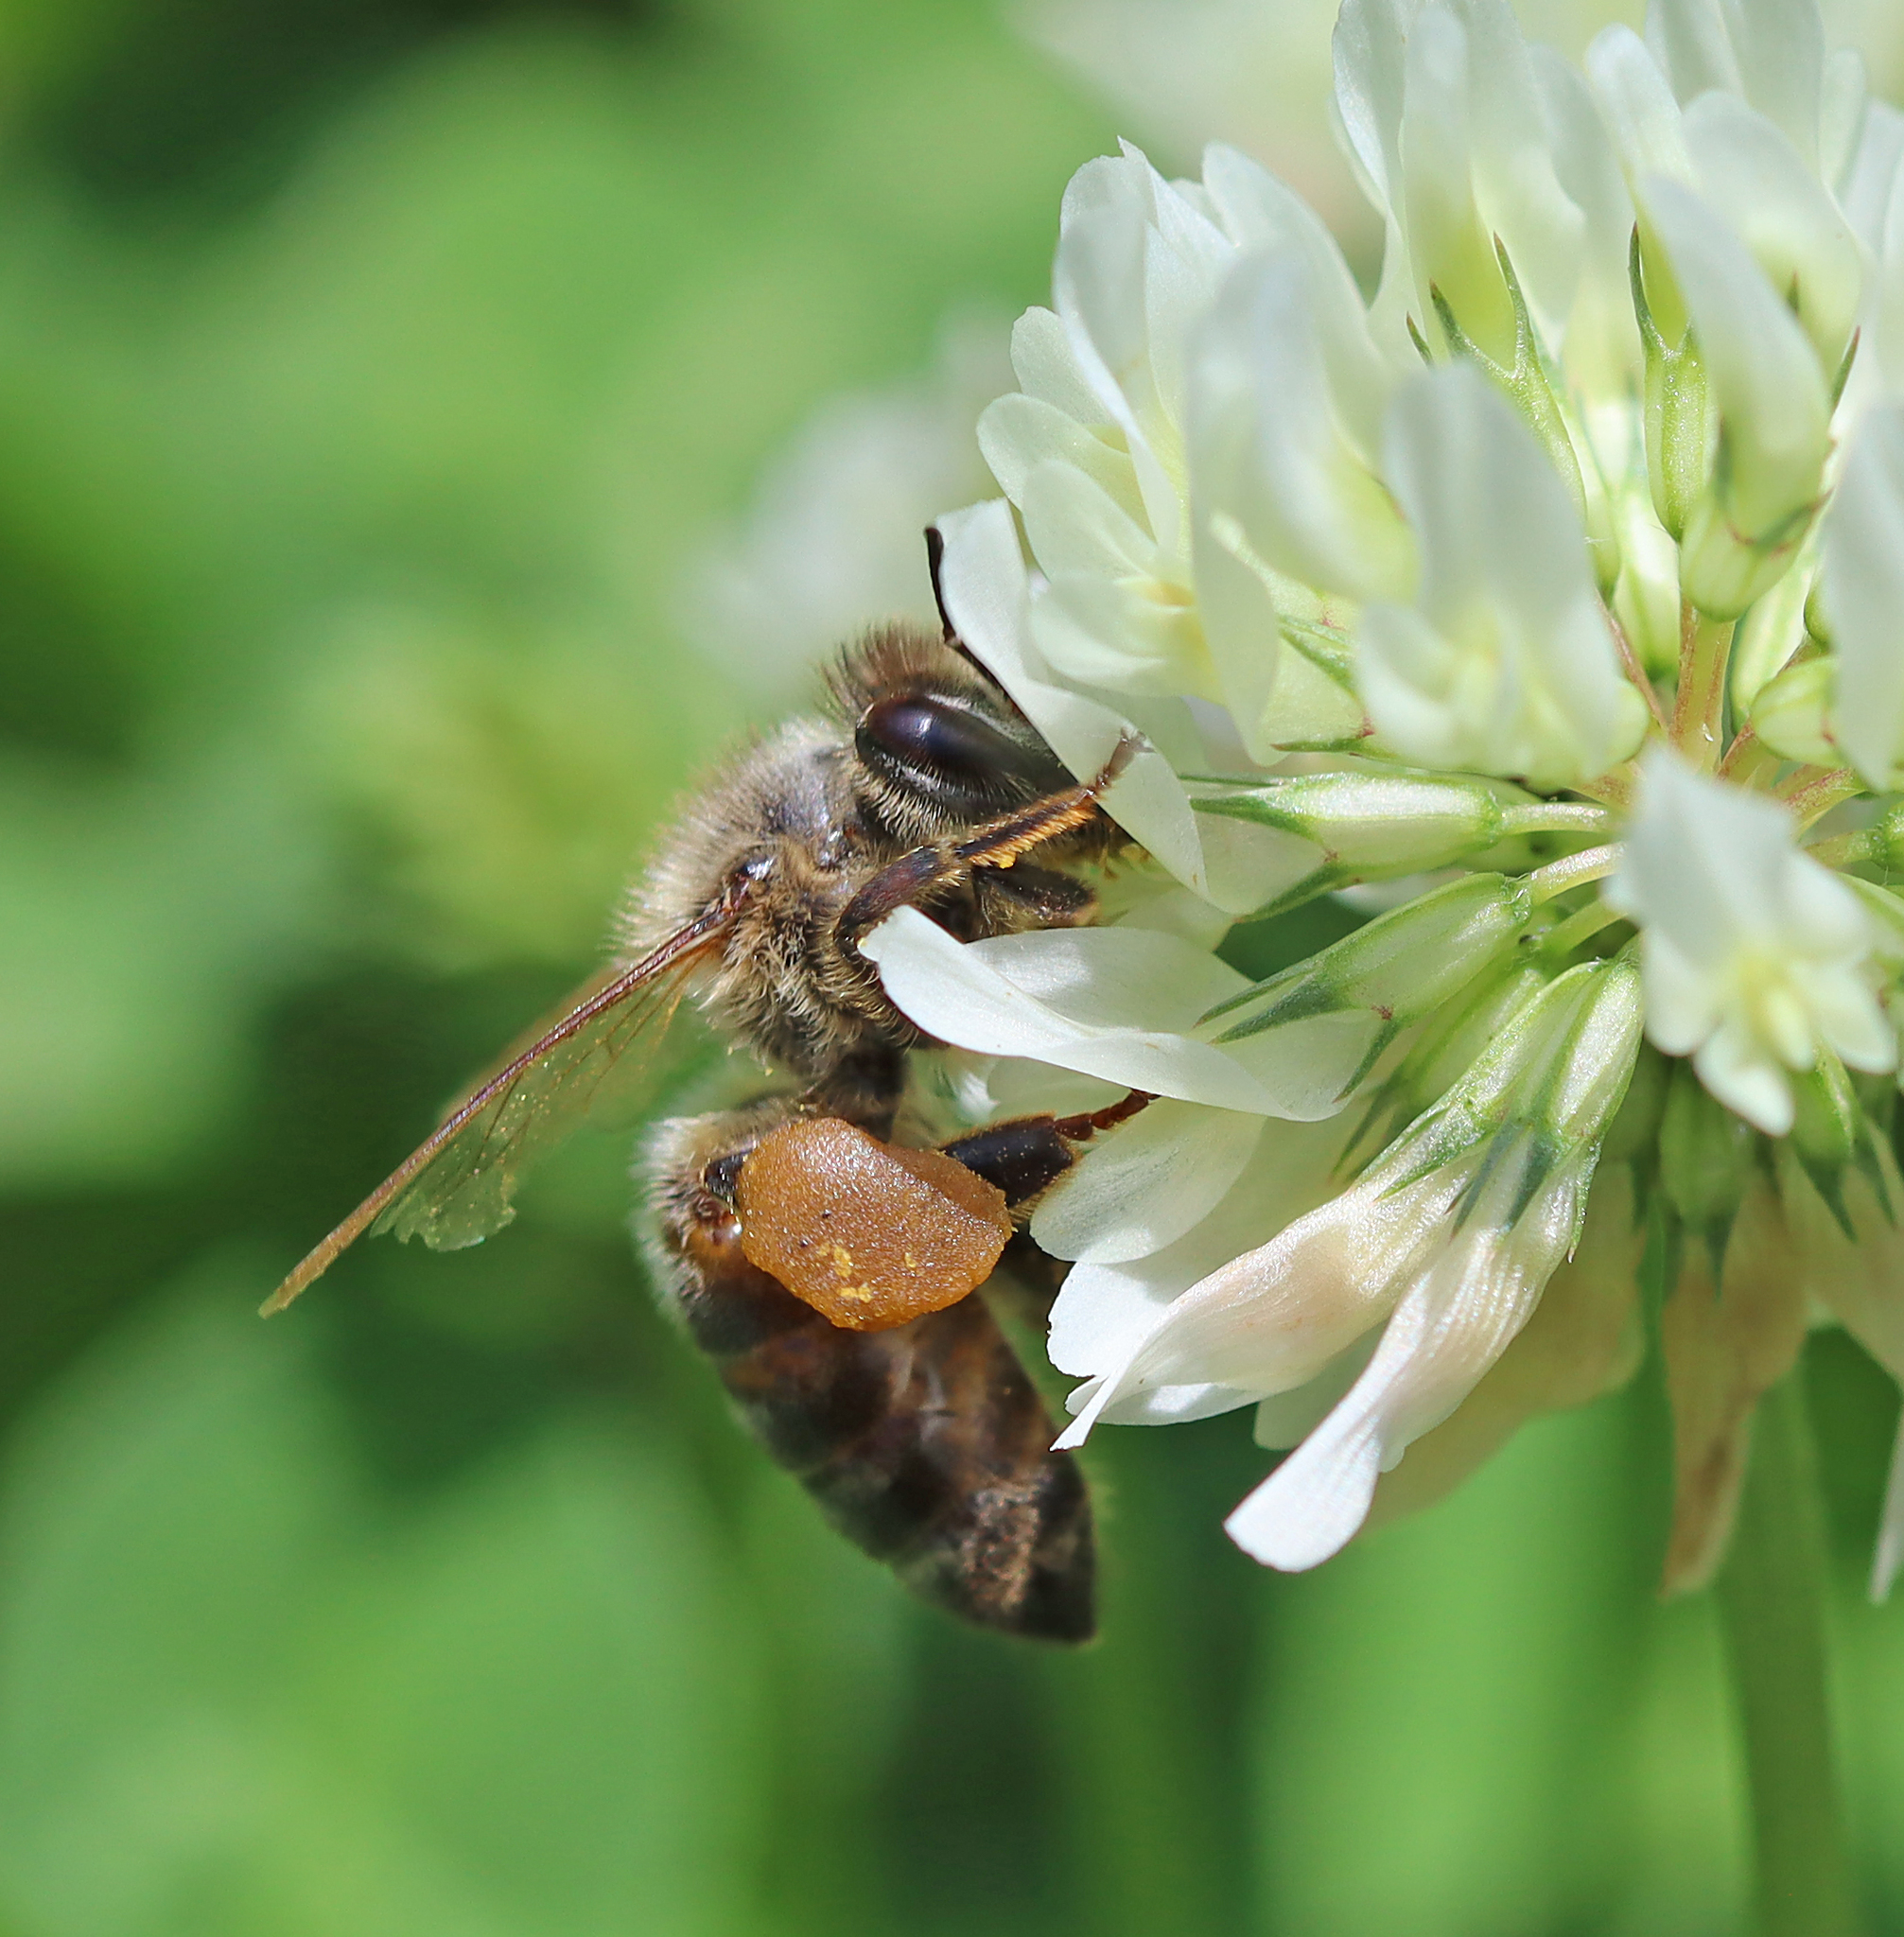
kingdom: Animalia
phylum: Arthropoda
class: Insecta
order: Hymenoptera
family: Apidae
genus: Apis
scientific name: Apis mellifera
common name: Honey bee
